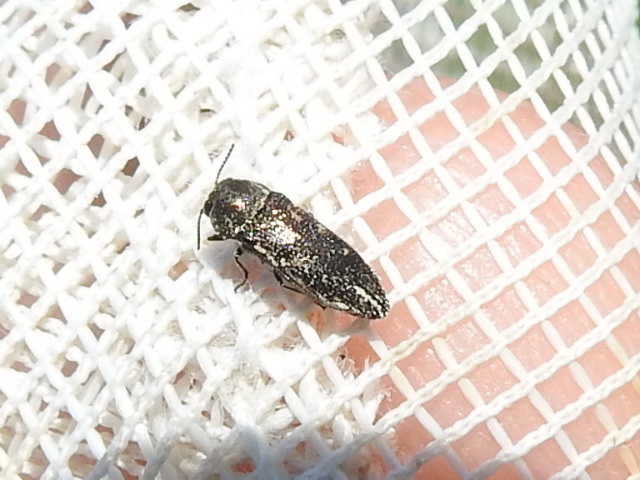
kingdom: Animalia
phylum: Arthropoda
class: Insecta
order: Coleoptera
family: Buprestidae
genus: Acmaeodera
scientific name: Acmaeodera tubulus
